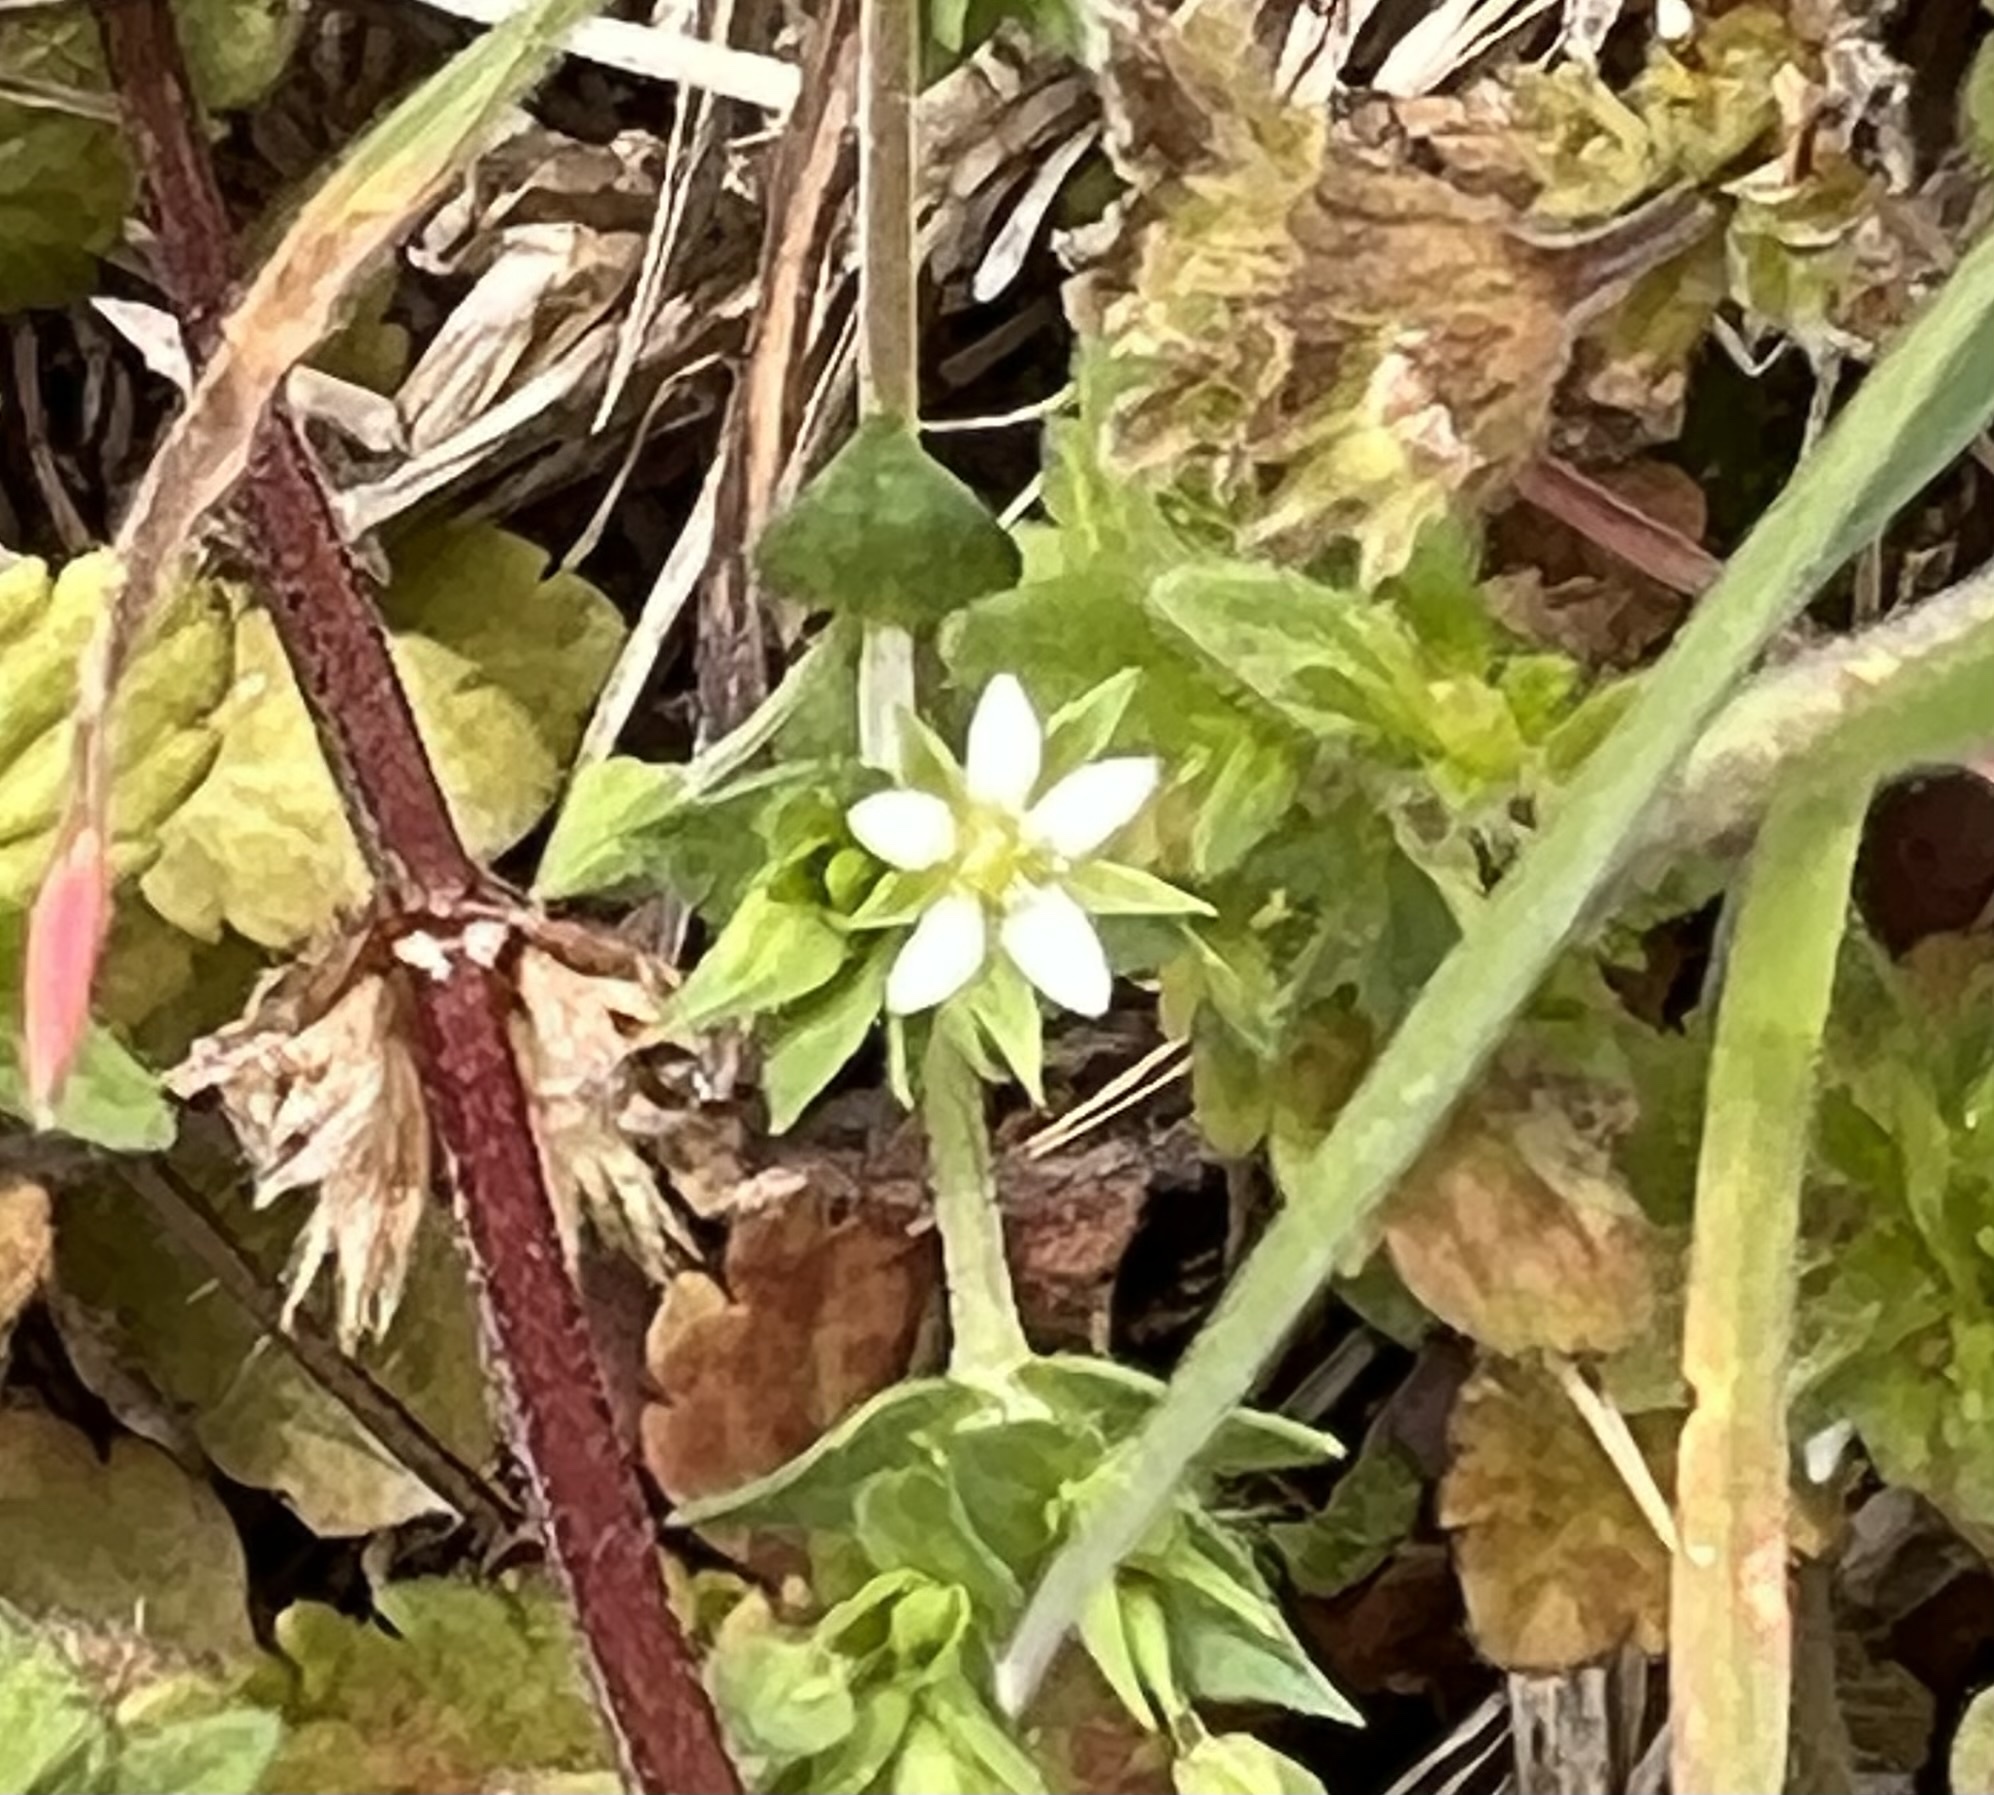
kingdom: Plantae
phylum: Tracheophyta
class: Magnoliopsida
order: Caryophyllales
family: Caryophyllaceae
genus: Arenaria
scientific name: Arenaria serpyllifolia
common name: Thyme-leaved sandwort
